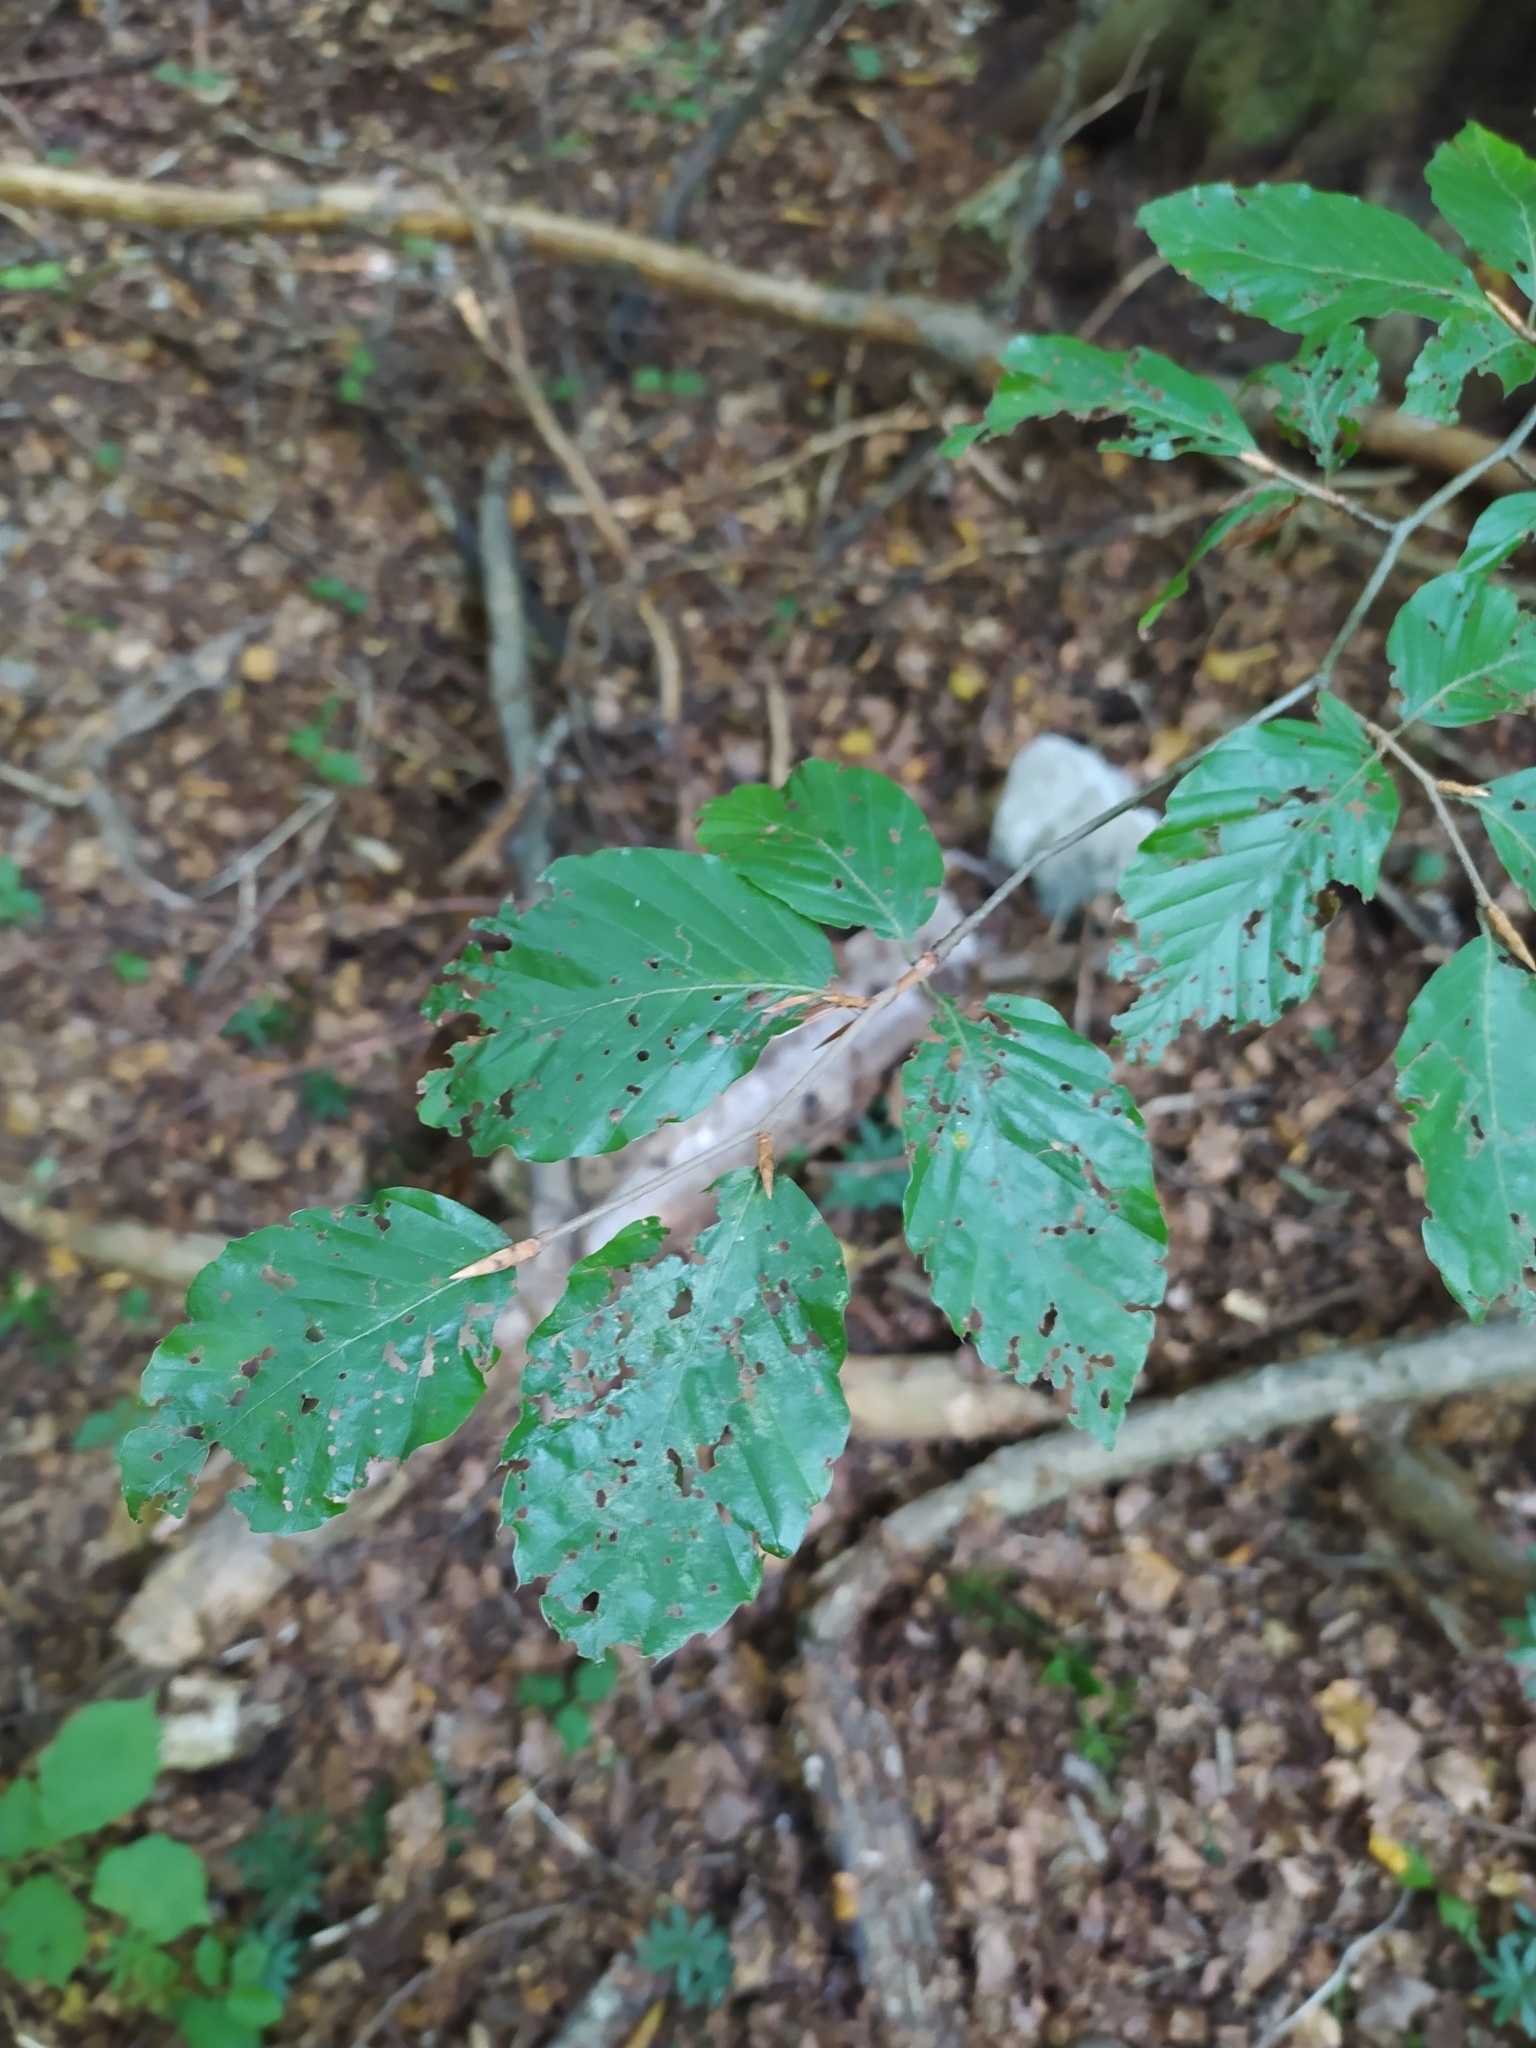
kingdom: Plantae
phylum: Tracheophyta
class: Magnoliopsida
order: Fagales
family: Fagaceae
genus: Fagus
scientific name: Fagus sylvatica
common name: Beech
